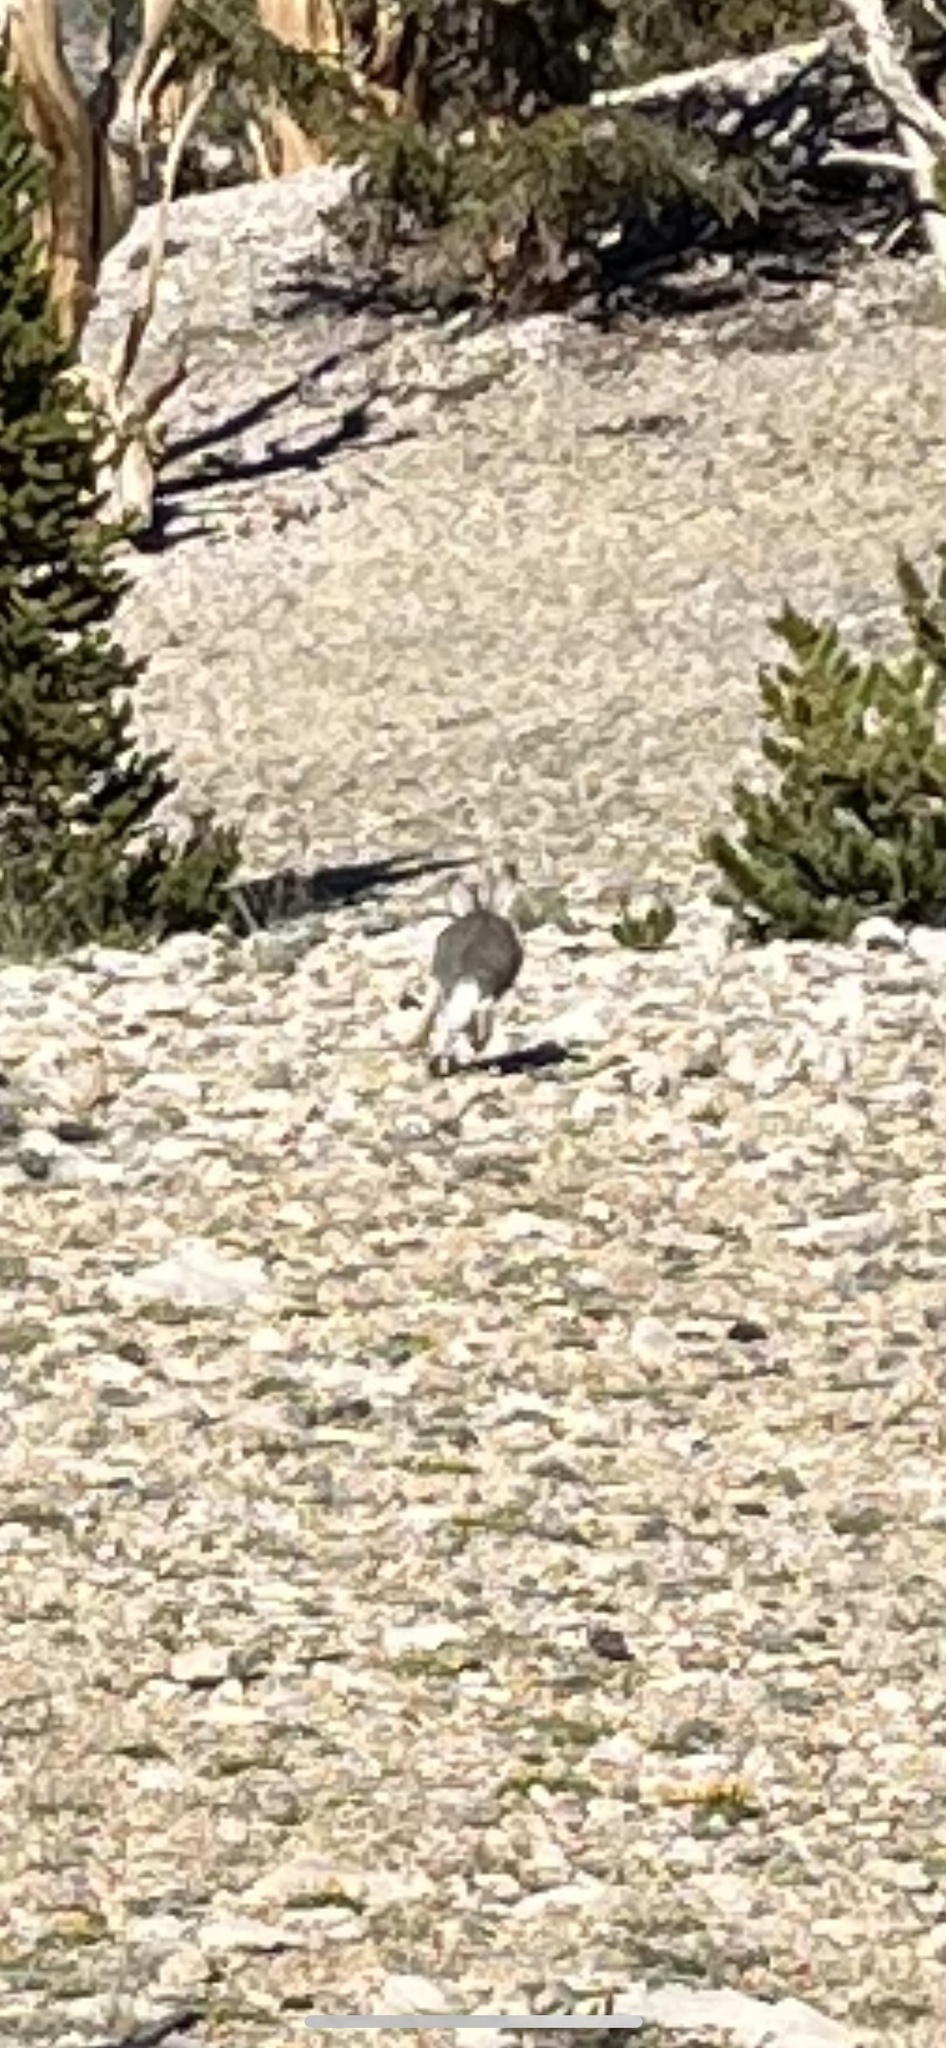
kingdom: Animalia
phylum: Chordata
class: Mammalia
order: Lagomorpha
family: Leporidae
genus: Lepus
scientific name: Lepus californicus
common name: Black-tailed jackrabbit
